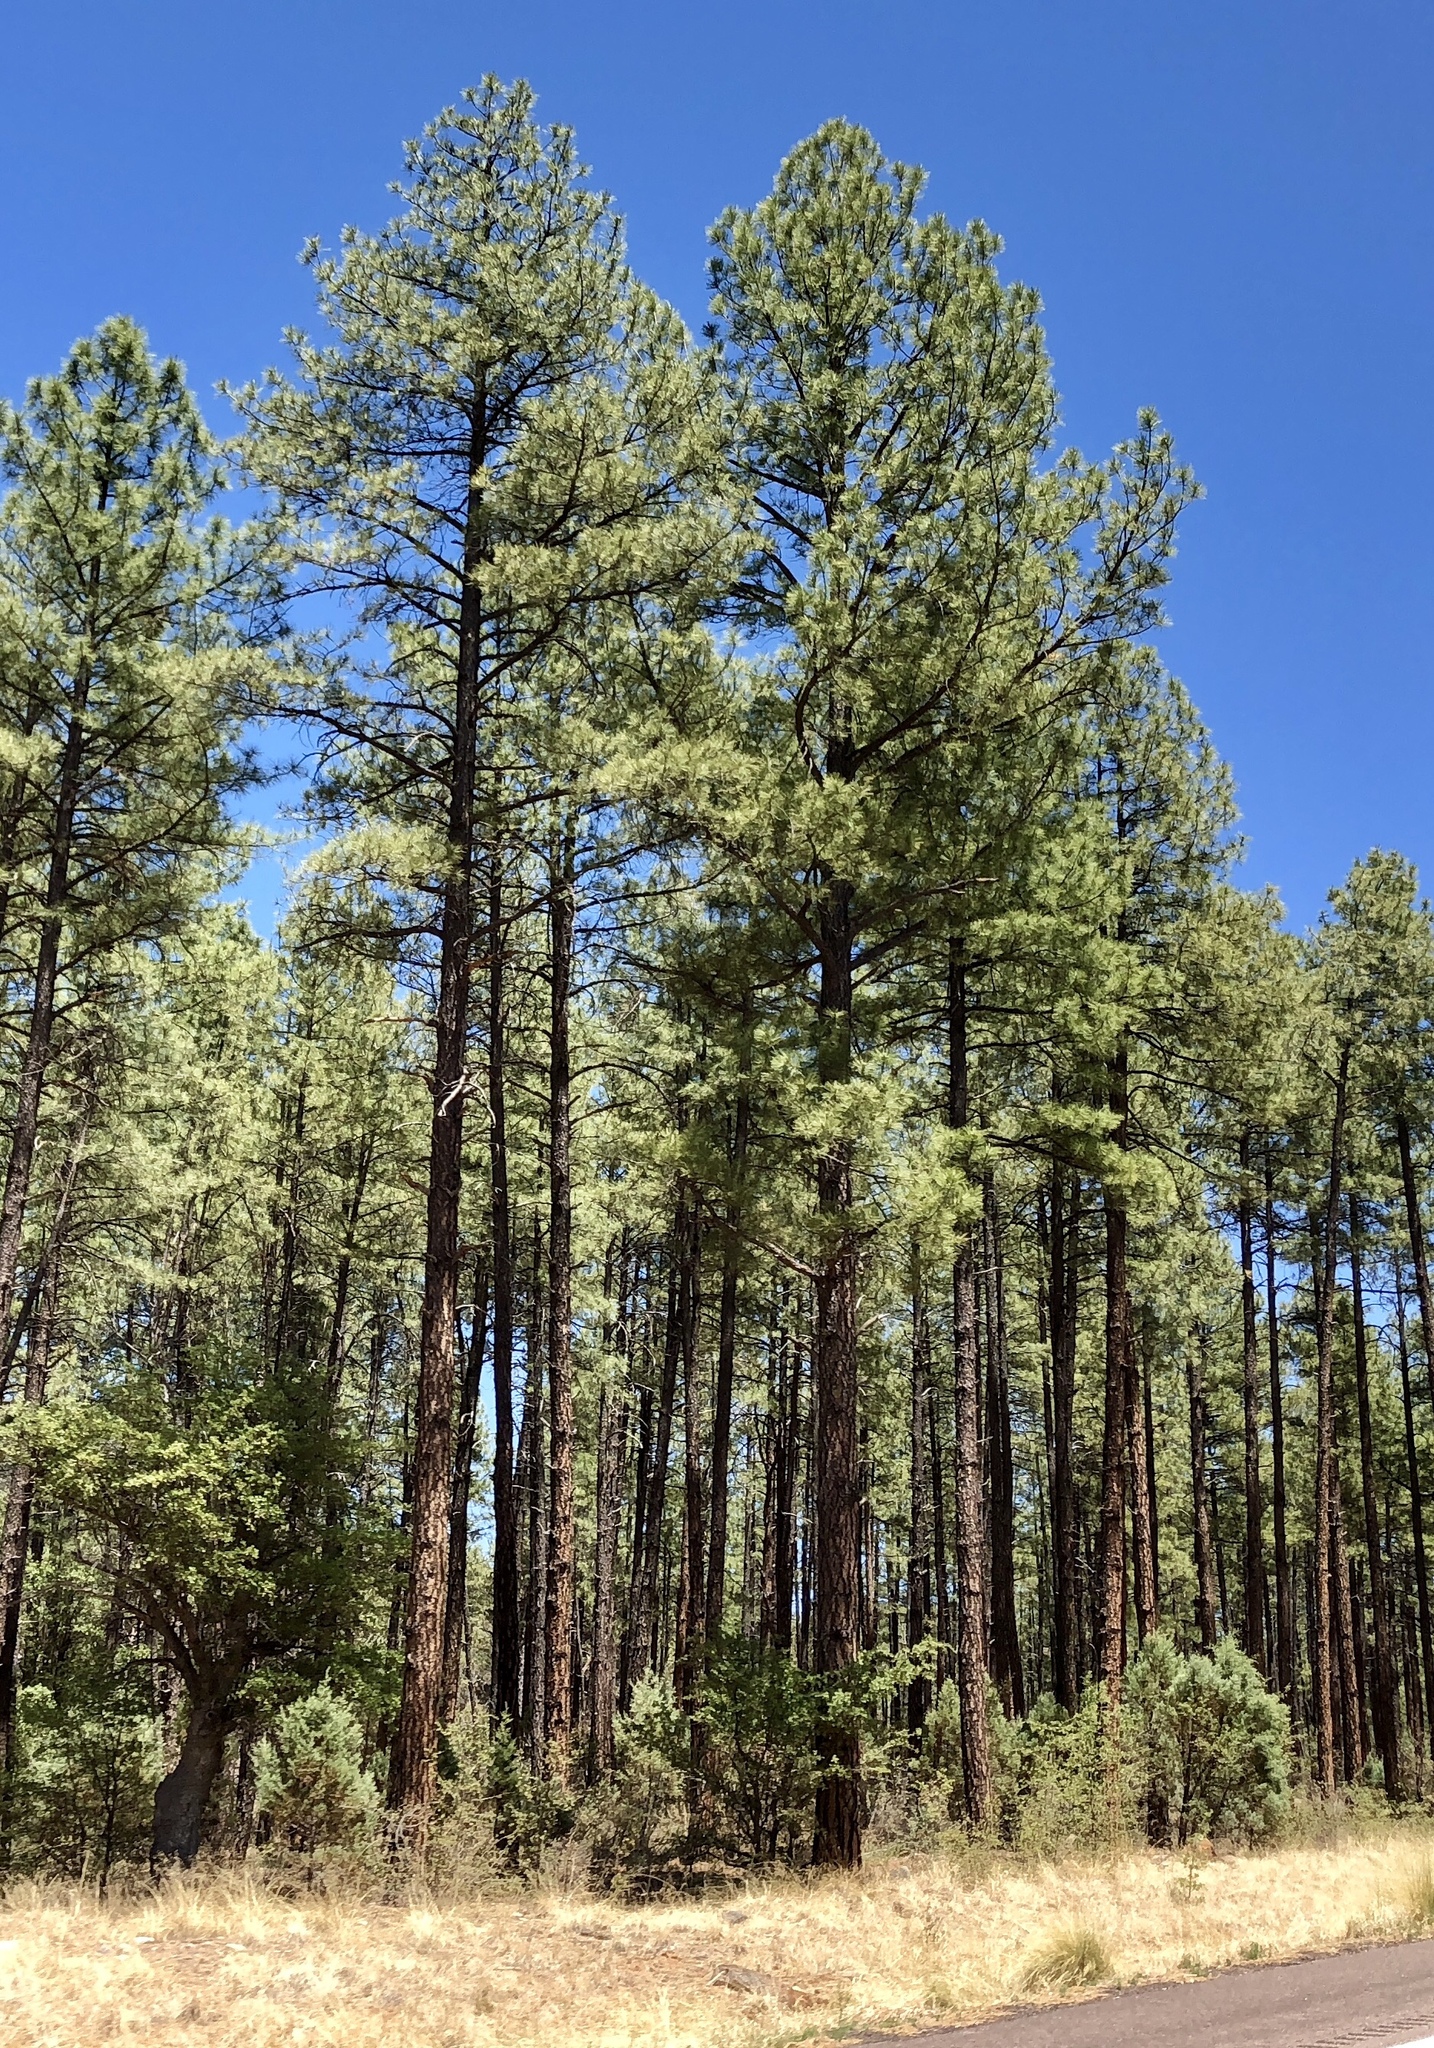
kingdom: Plantae
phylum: Tracheophyta
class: Pinopsida
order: Pinales
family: Pinaceae
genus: Pinus
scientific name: Pinus ponderosa
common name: Western yellow-pine
